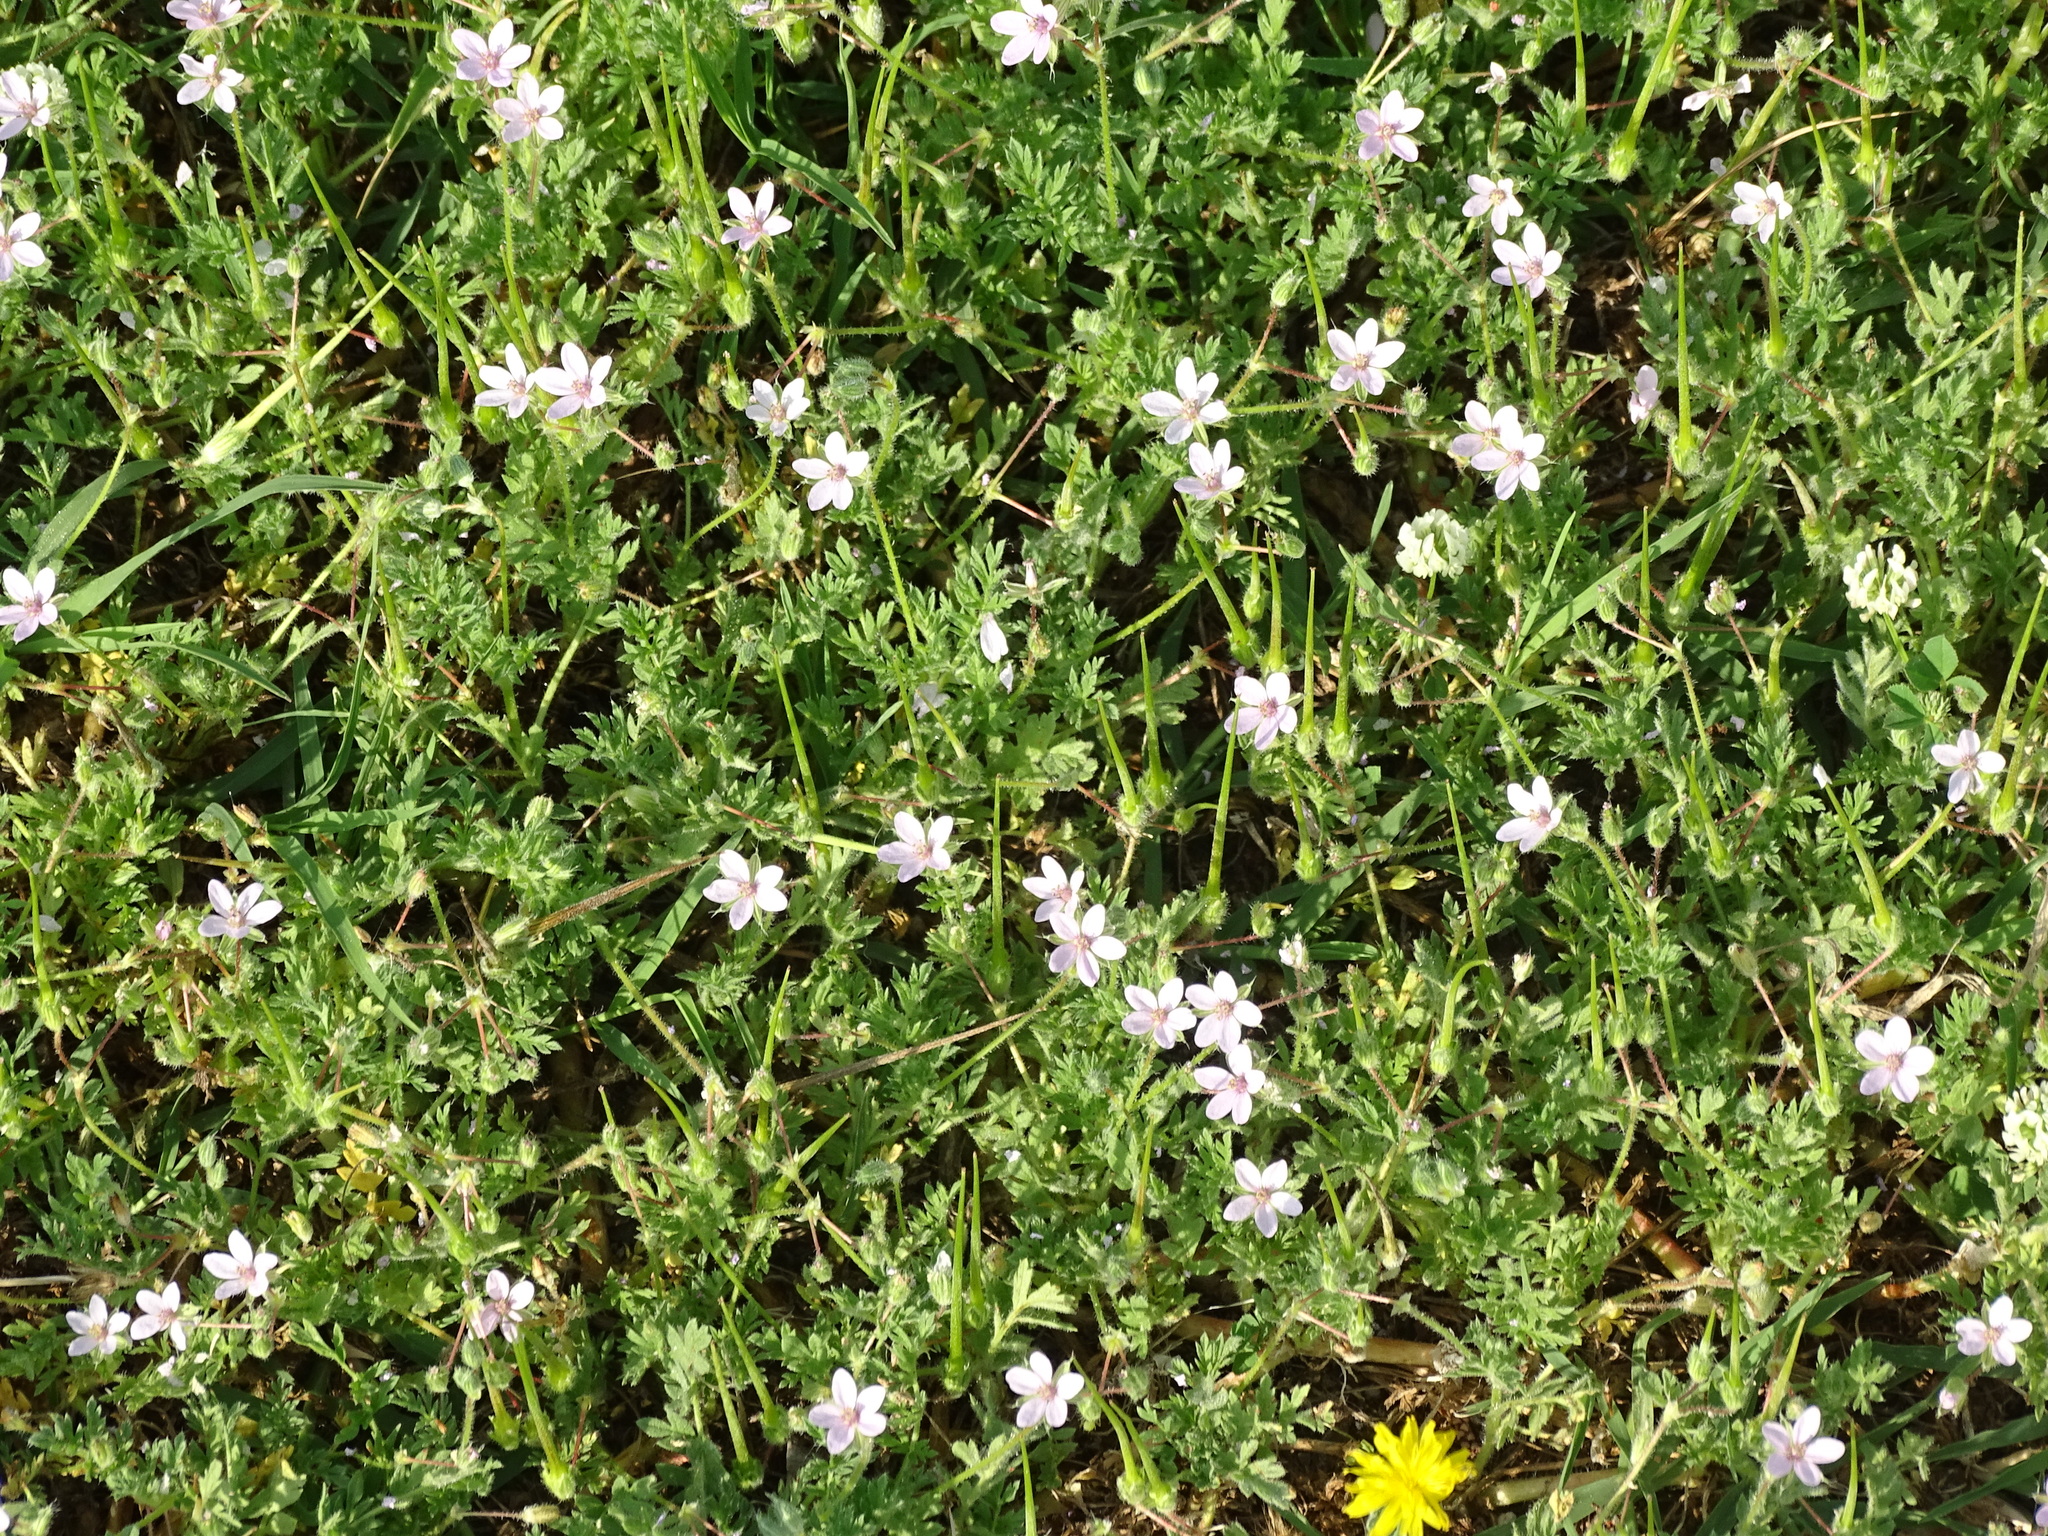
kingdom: Plantae
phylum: Tracheophyta
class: Magnoliopsida
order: Geraniales
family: Geraniaceae
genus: Erodium
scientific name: Erodium cicutarium
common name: Common stork's-bill
